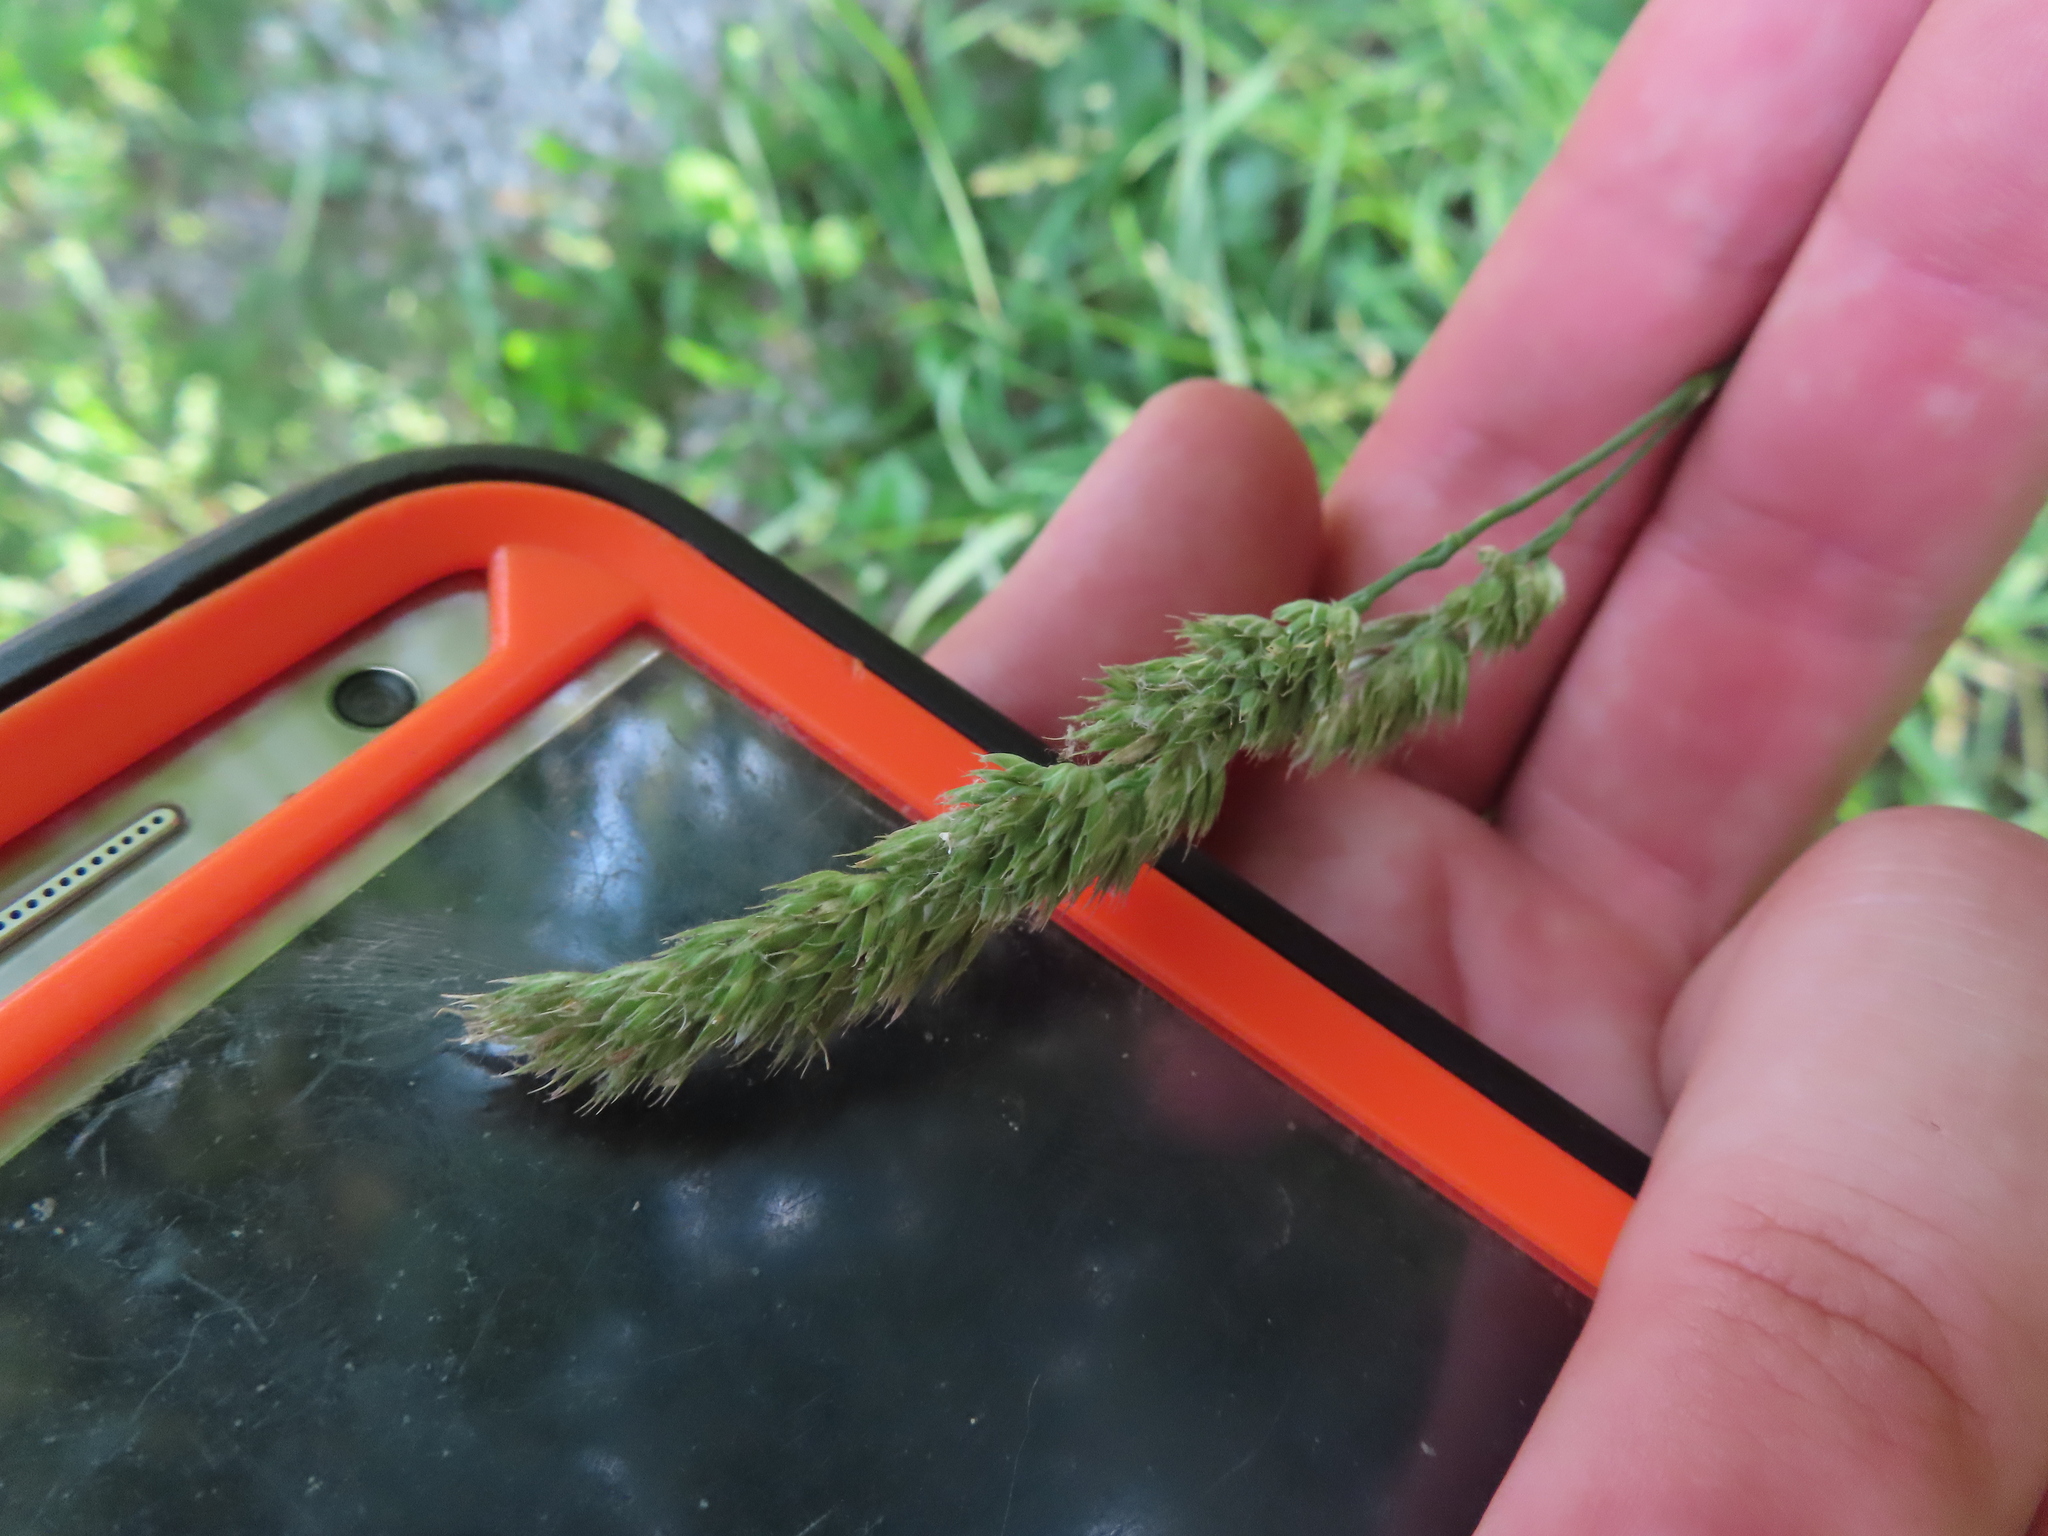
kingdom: Plantae
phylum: Tracheophyta
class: Liliopsida
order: Poales
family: Poaceae
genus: Dactylis
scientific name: Dactylis glomerata
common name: Orchardgrass
